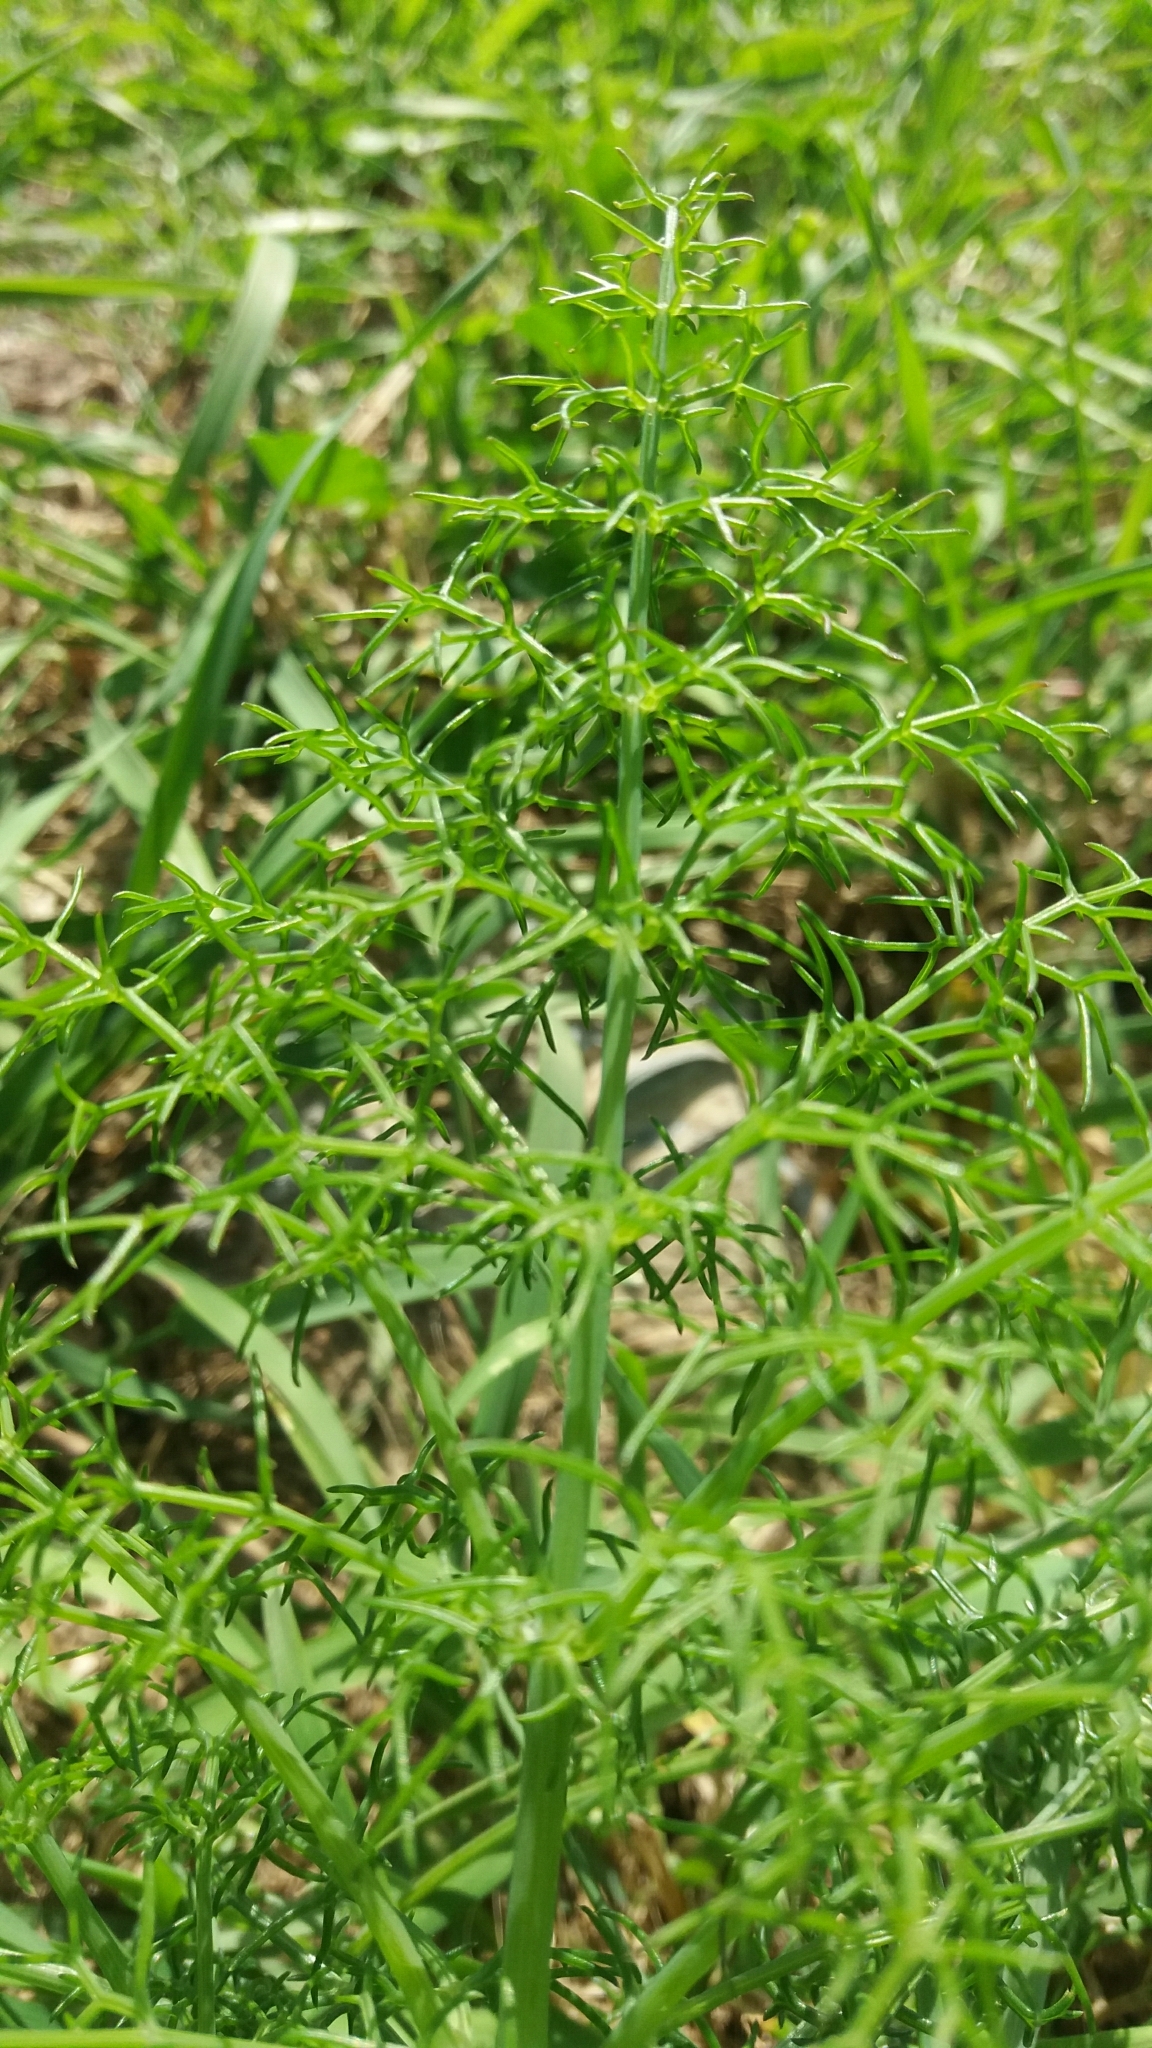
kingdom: Plantae
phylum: Tracheophyta
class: Magnoliopsida
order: Apiales
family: Apiaceae
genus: Foeniculum
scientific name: Foeniculum vulgare
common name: Fennel
